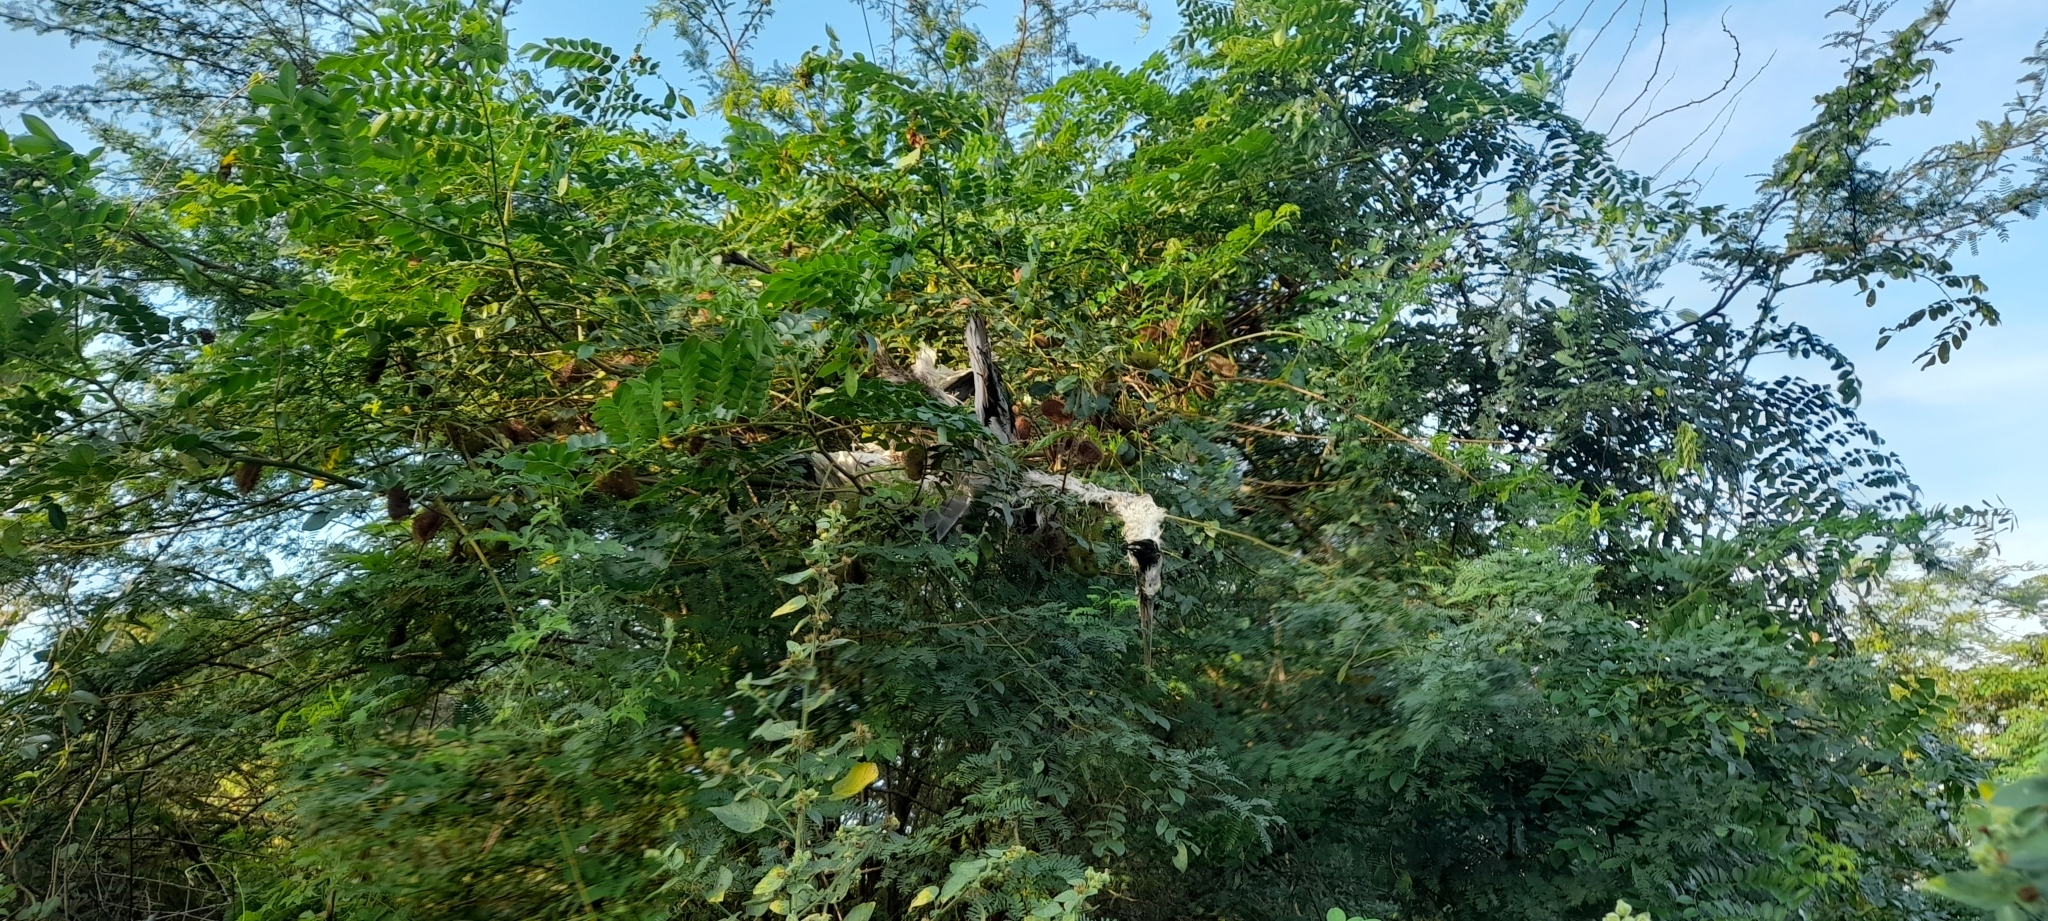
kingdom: Animalia
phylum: Chordata
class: Aves
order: Pelecaniformes
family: Ardeidae
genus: Ardea
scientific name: Ardea cinerea
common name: Grey heron
